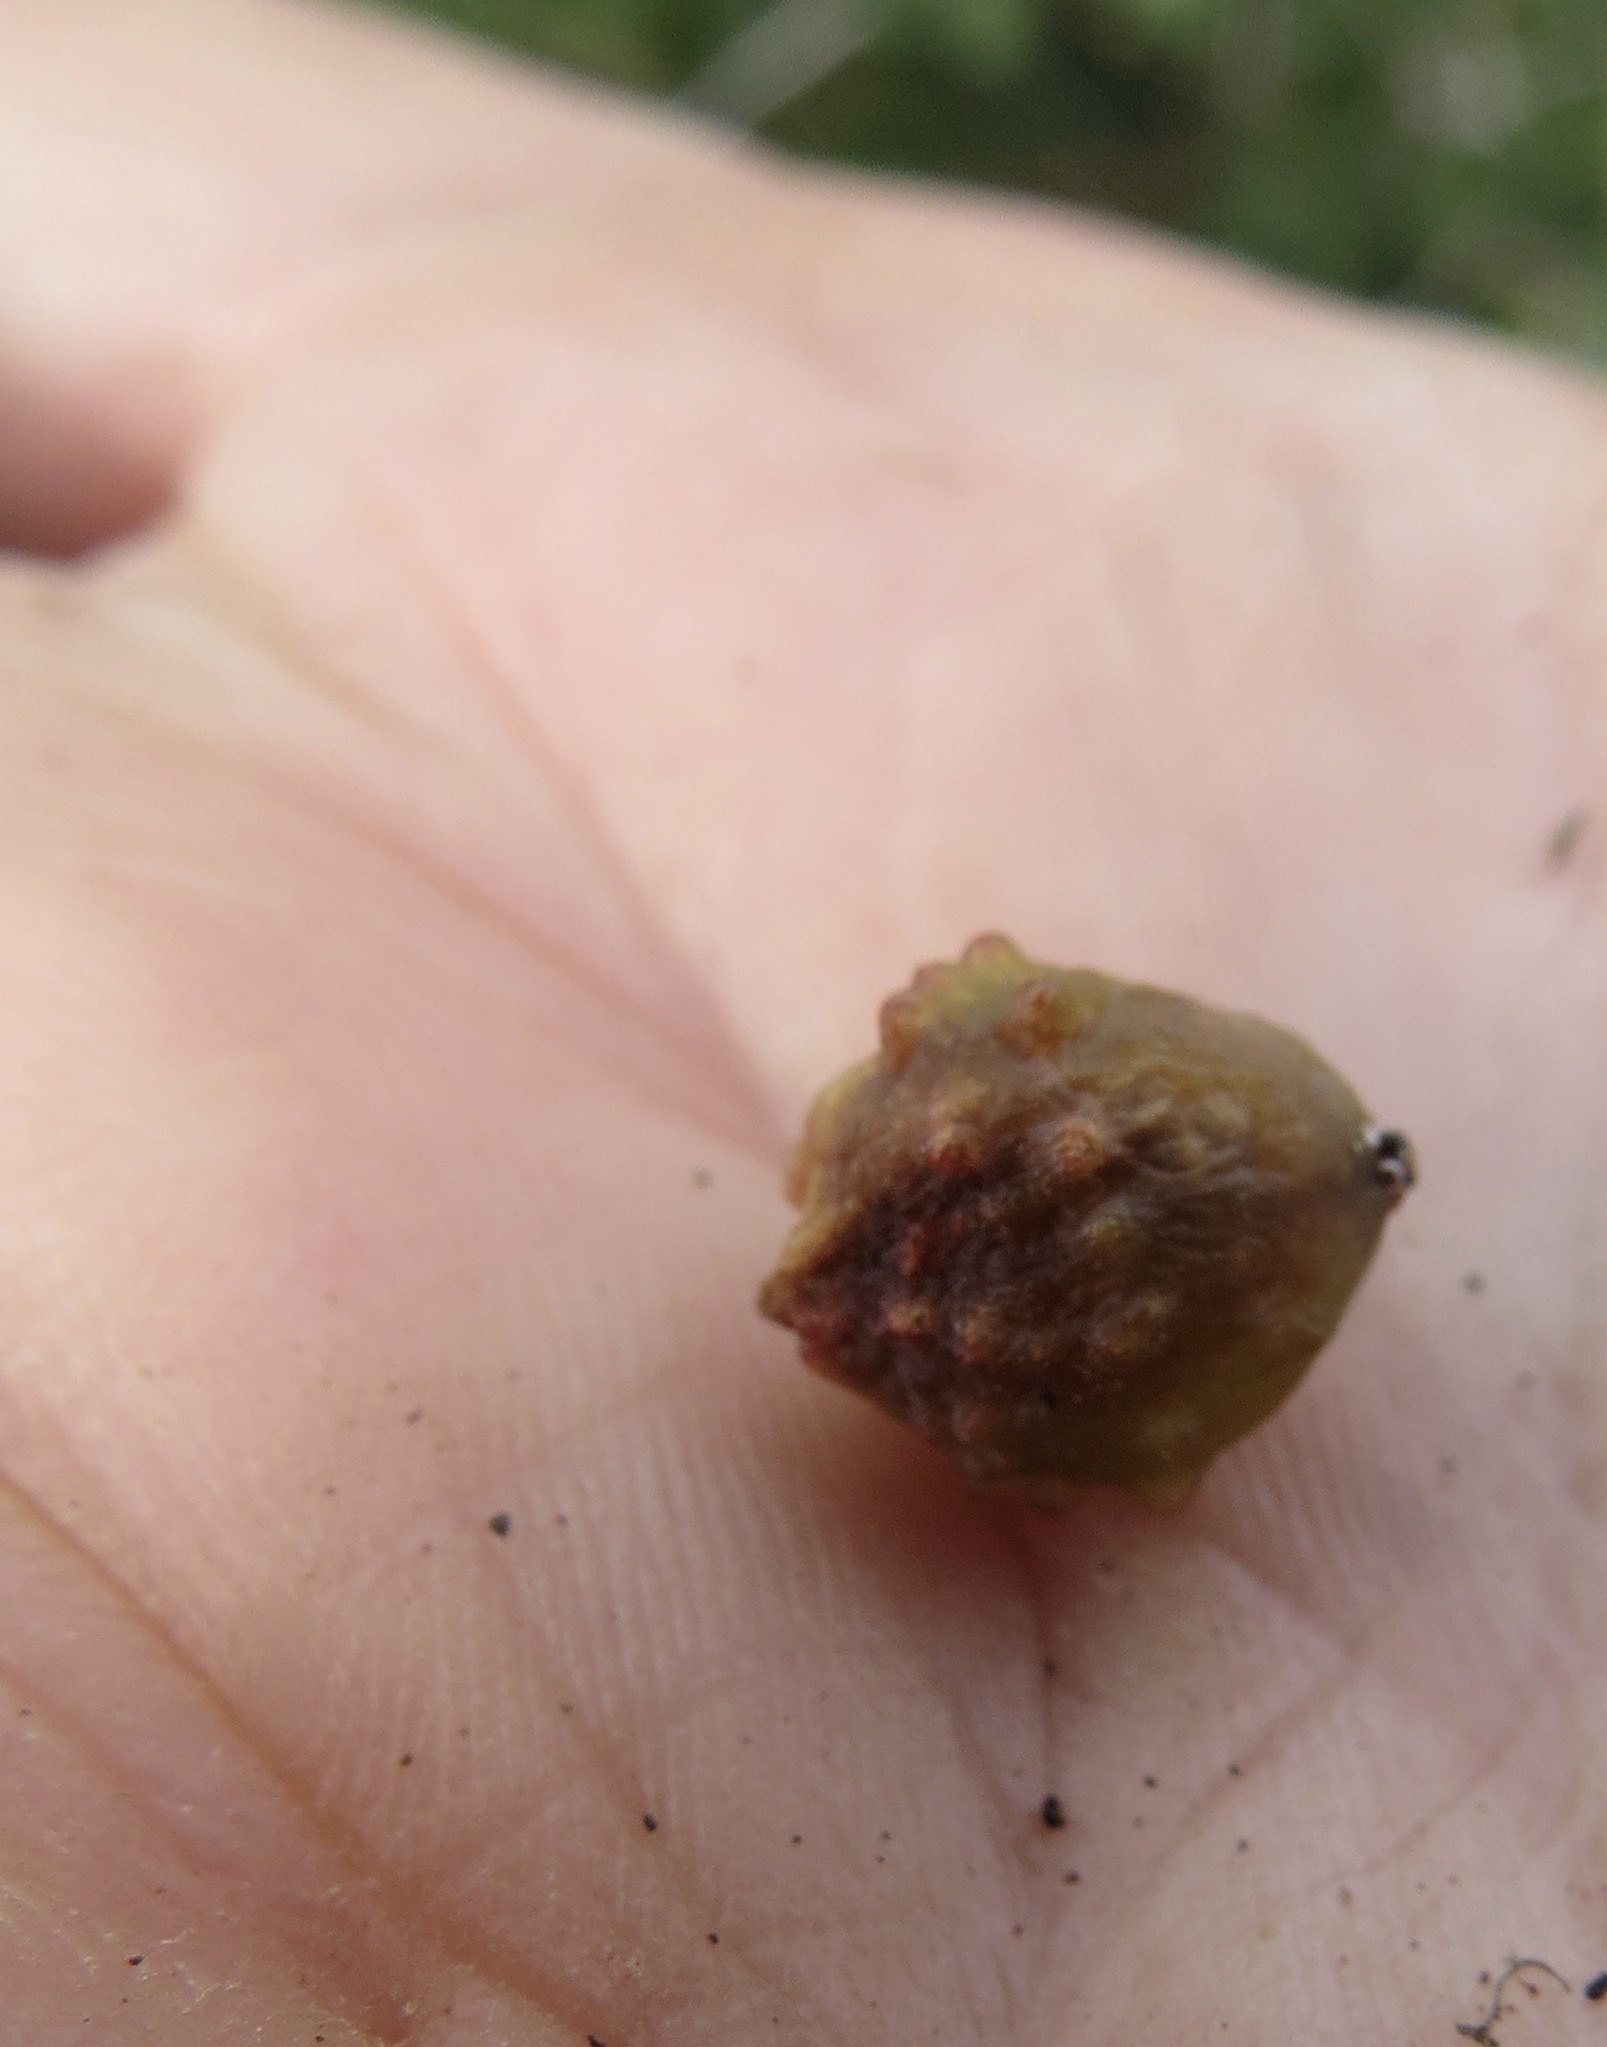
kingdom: Animalia
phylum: Arthropoda
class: Insecta
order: Hymenoptera
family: Cynipidae
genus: Cynips
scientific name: Cynips douglasi
